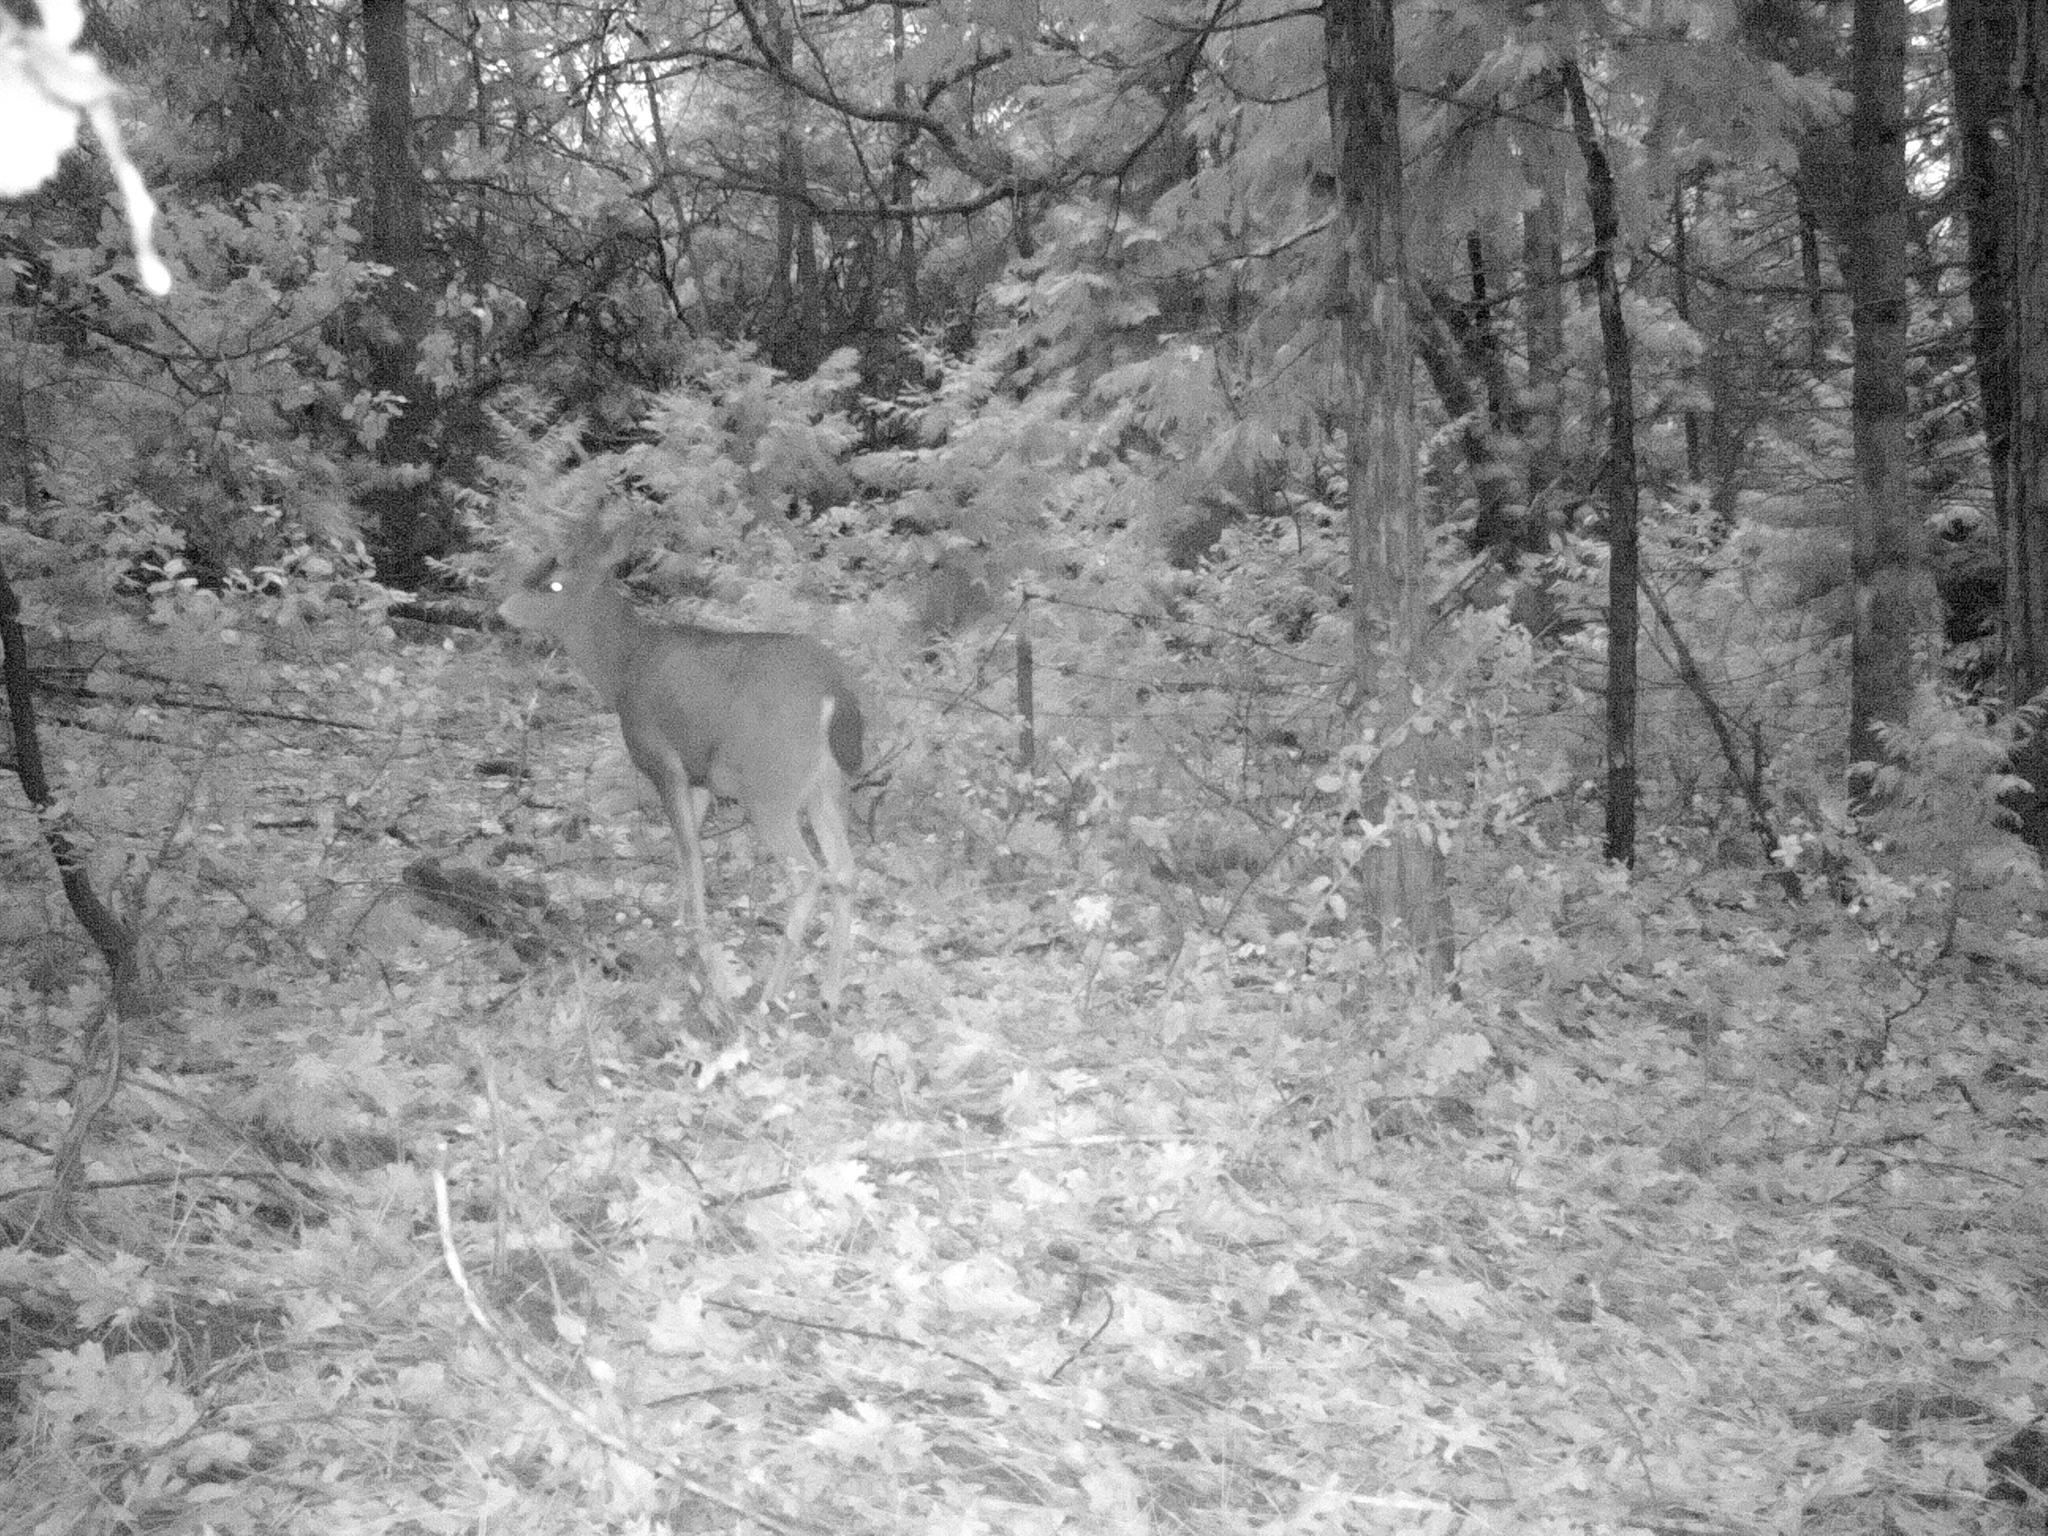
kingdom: Animalia
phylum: Chordata
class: Mammalia
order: Artiodactyla
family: Cervidae
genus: Odocoileus
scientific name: Odocoileus hemionus
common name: Mule deer
